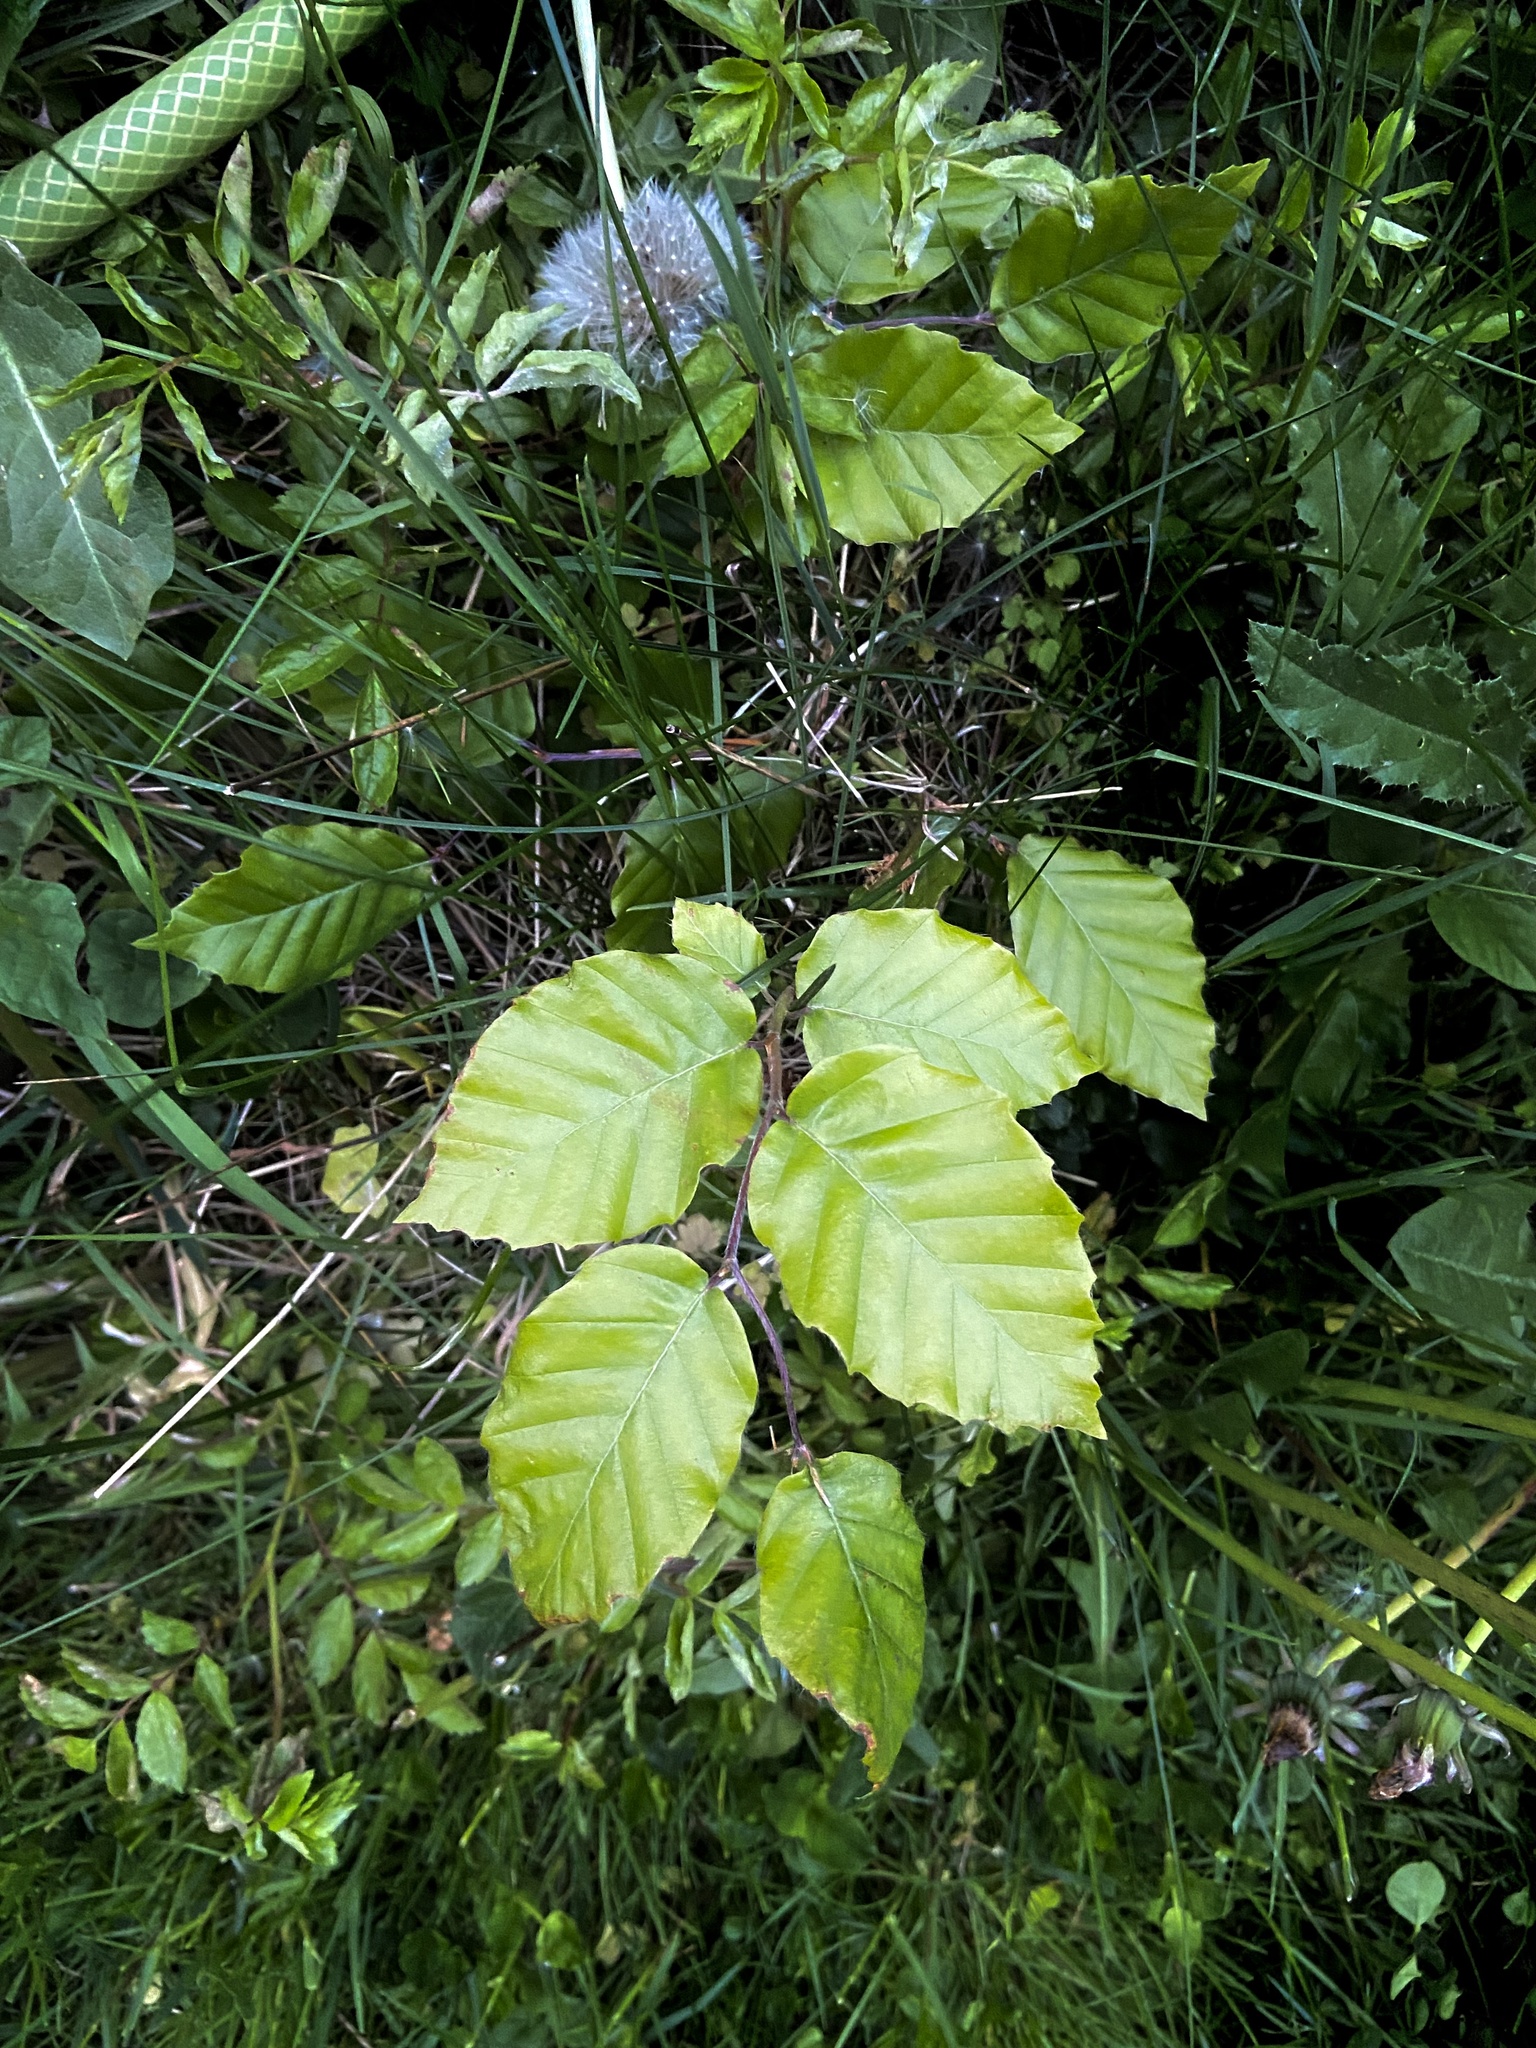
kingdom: Plantae
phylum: Tracheophyta
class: Magnoliopsida
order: Fagales
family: Fagaceae
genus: Fagus
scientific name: Fagus sylvatica
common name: Beech
